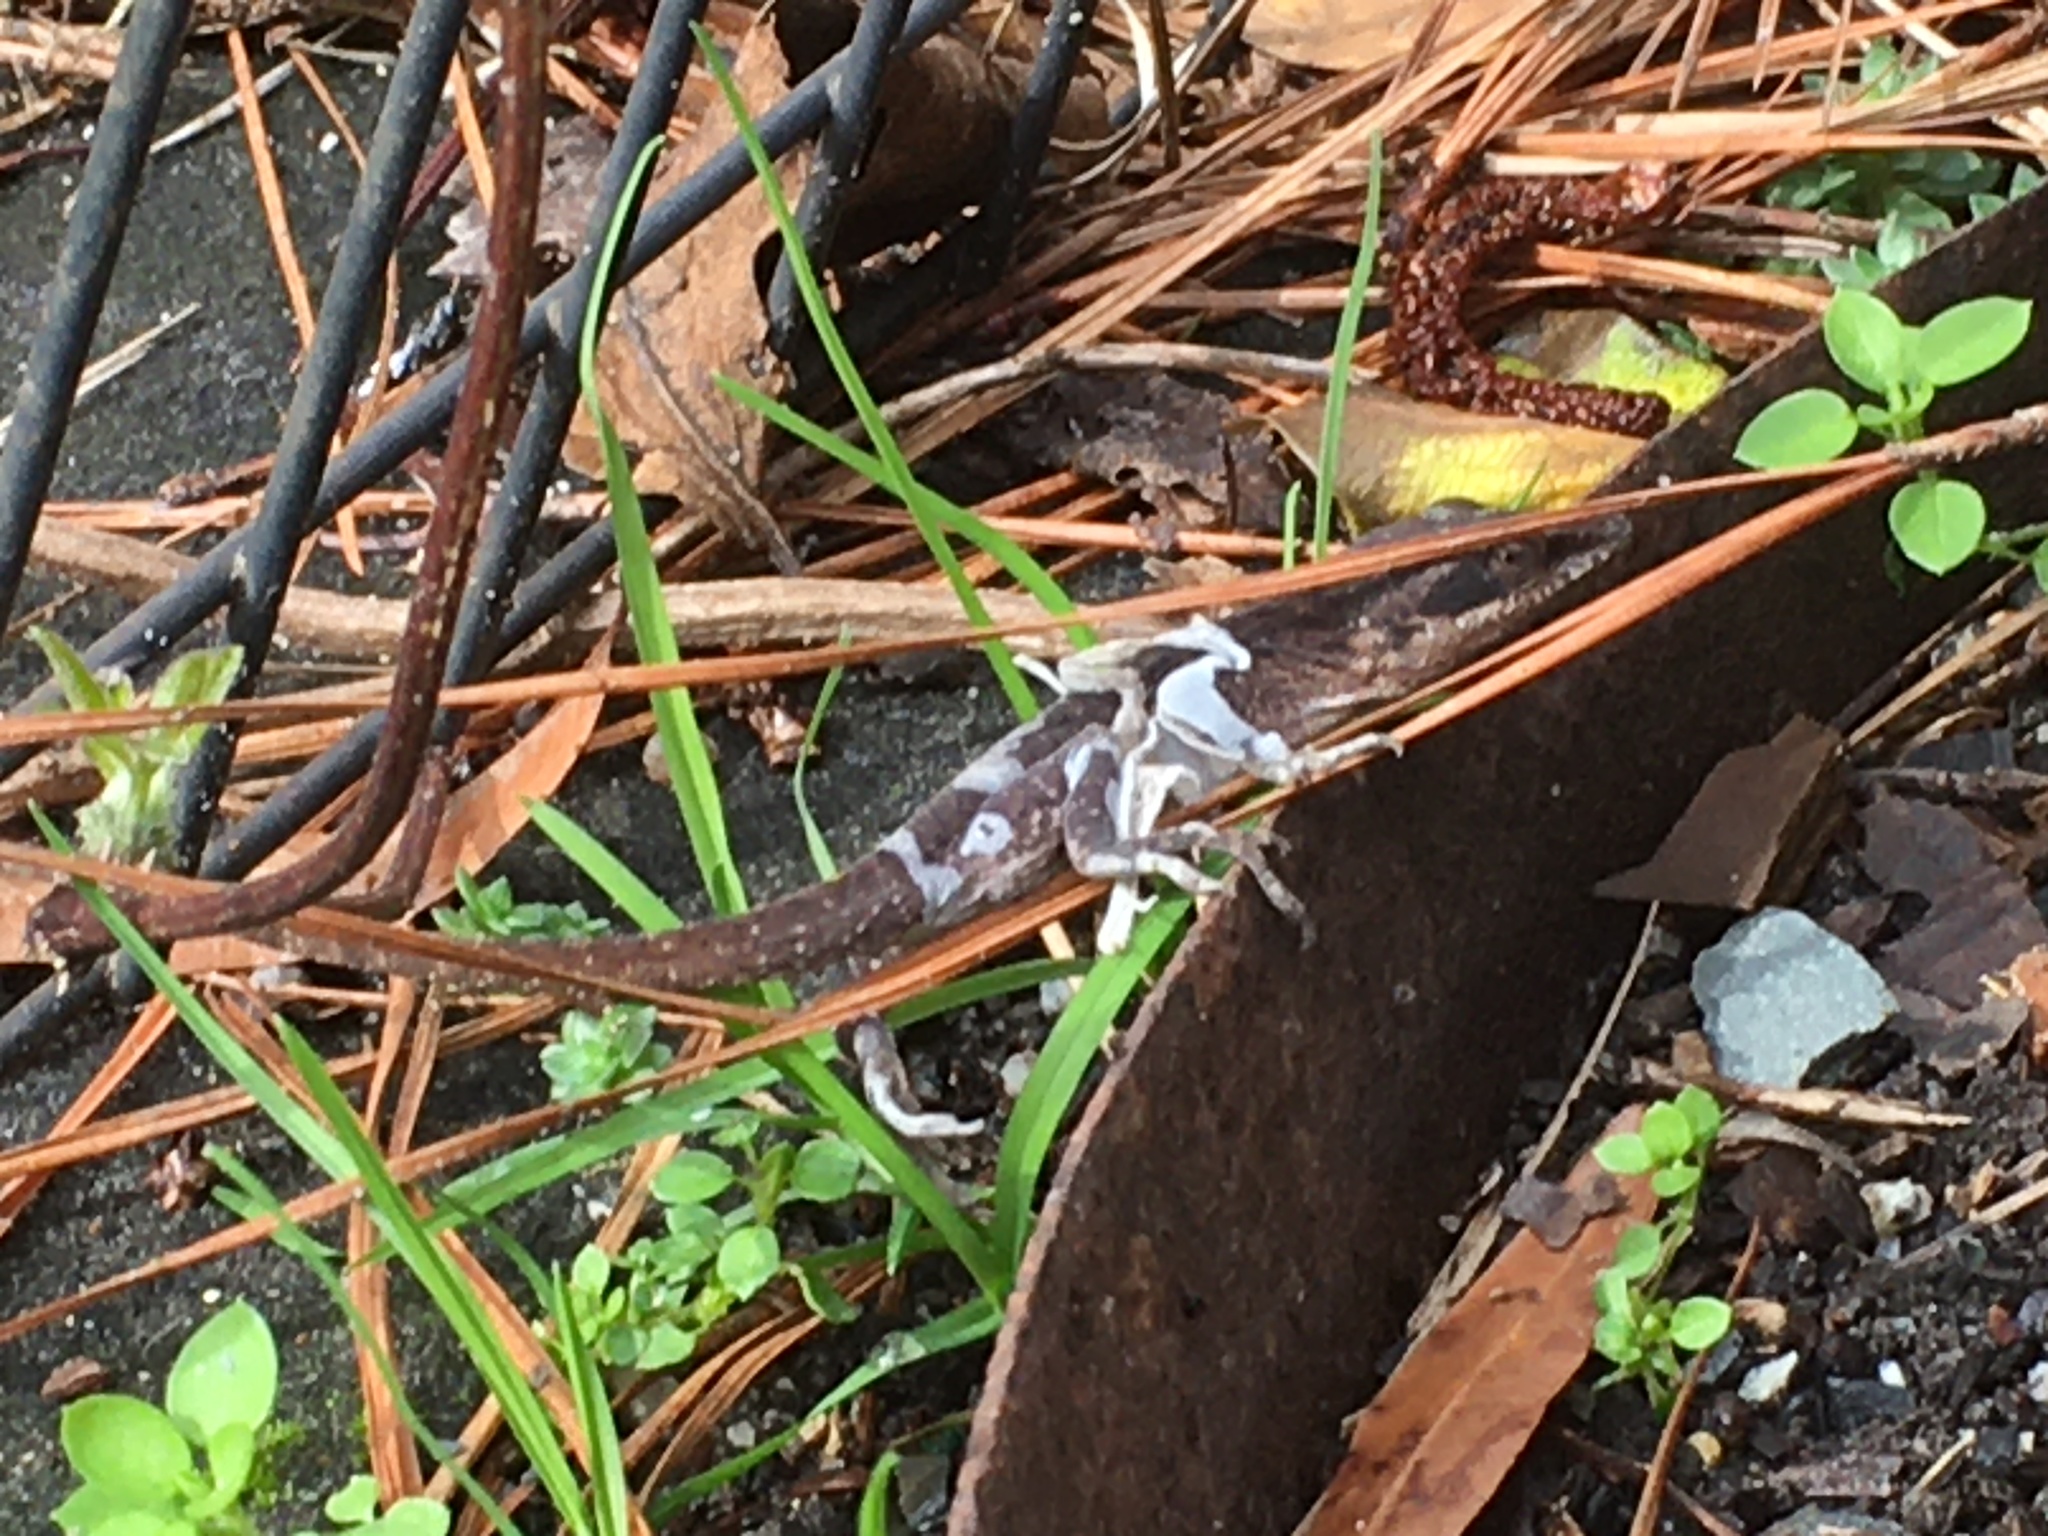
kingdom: Animalia
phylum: Chordata
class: Squamata
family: Dactyloidae
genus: Anolis
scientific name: Anolis carolinensis
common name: Green anole
